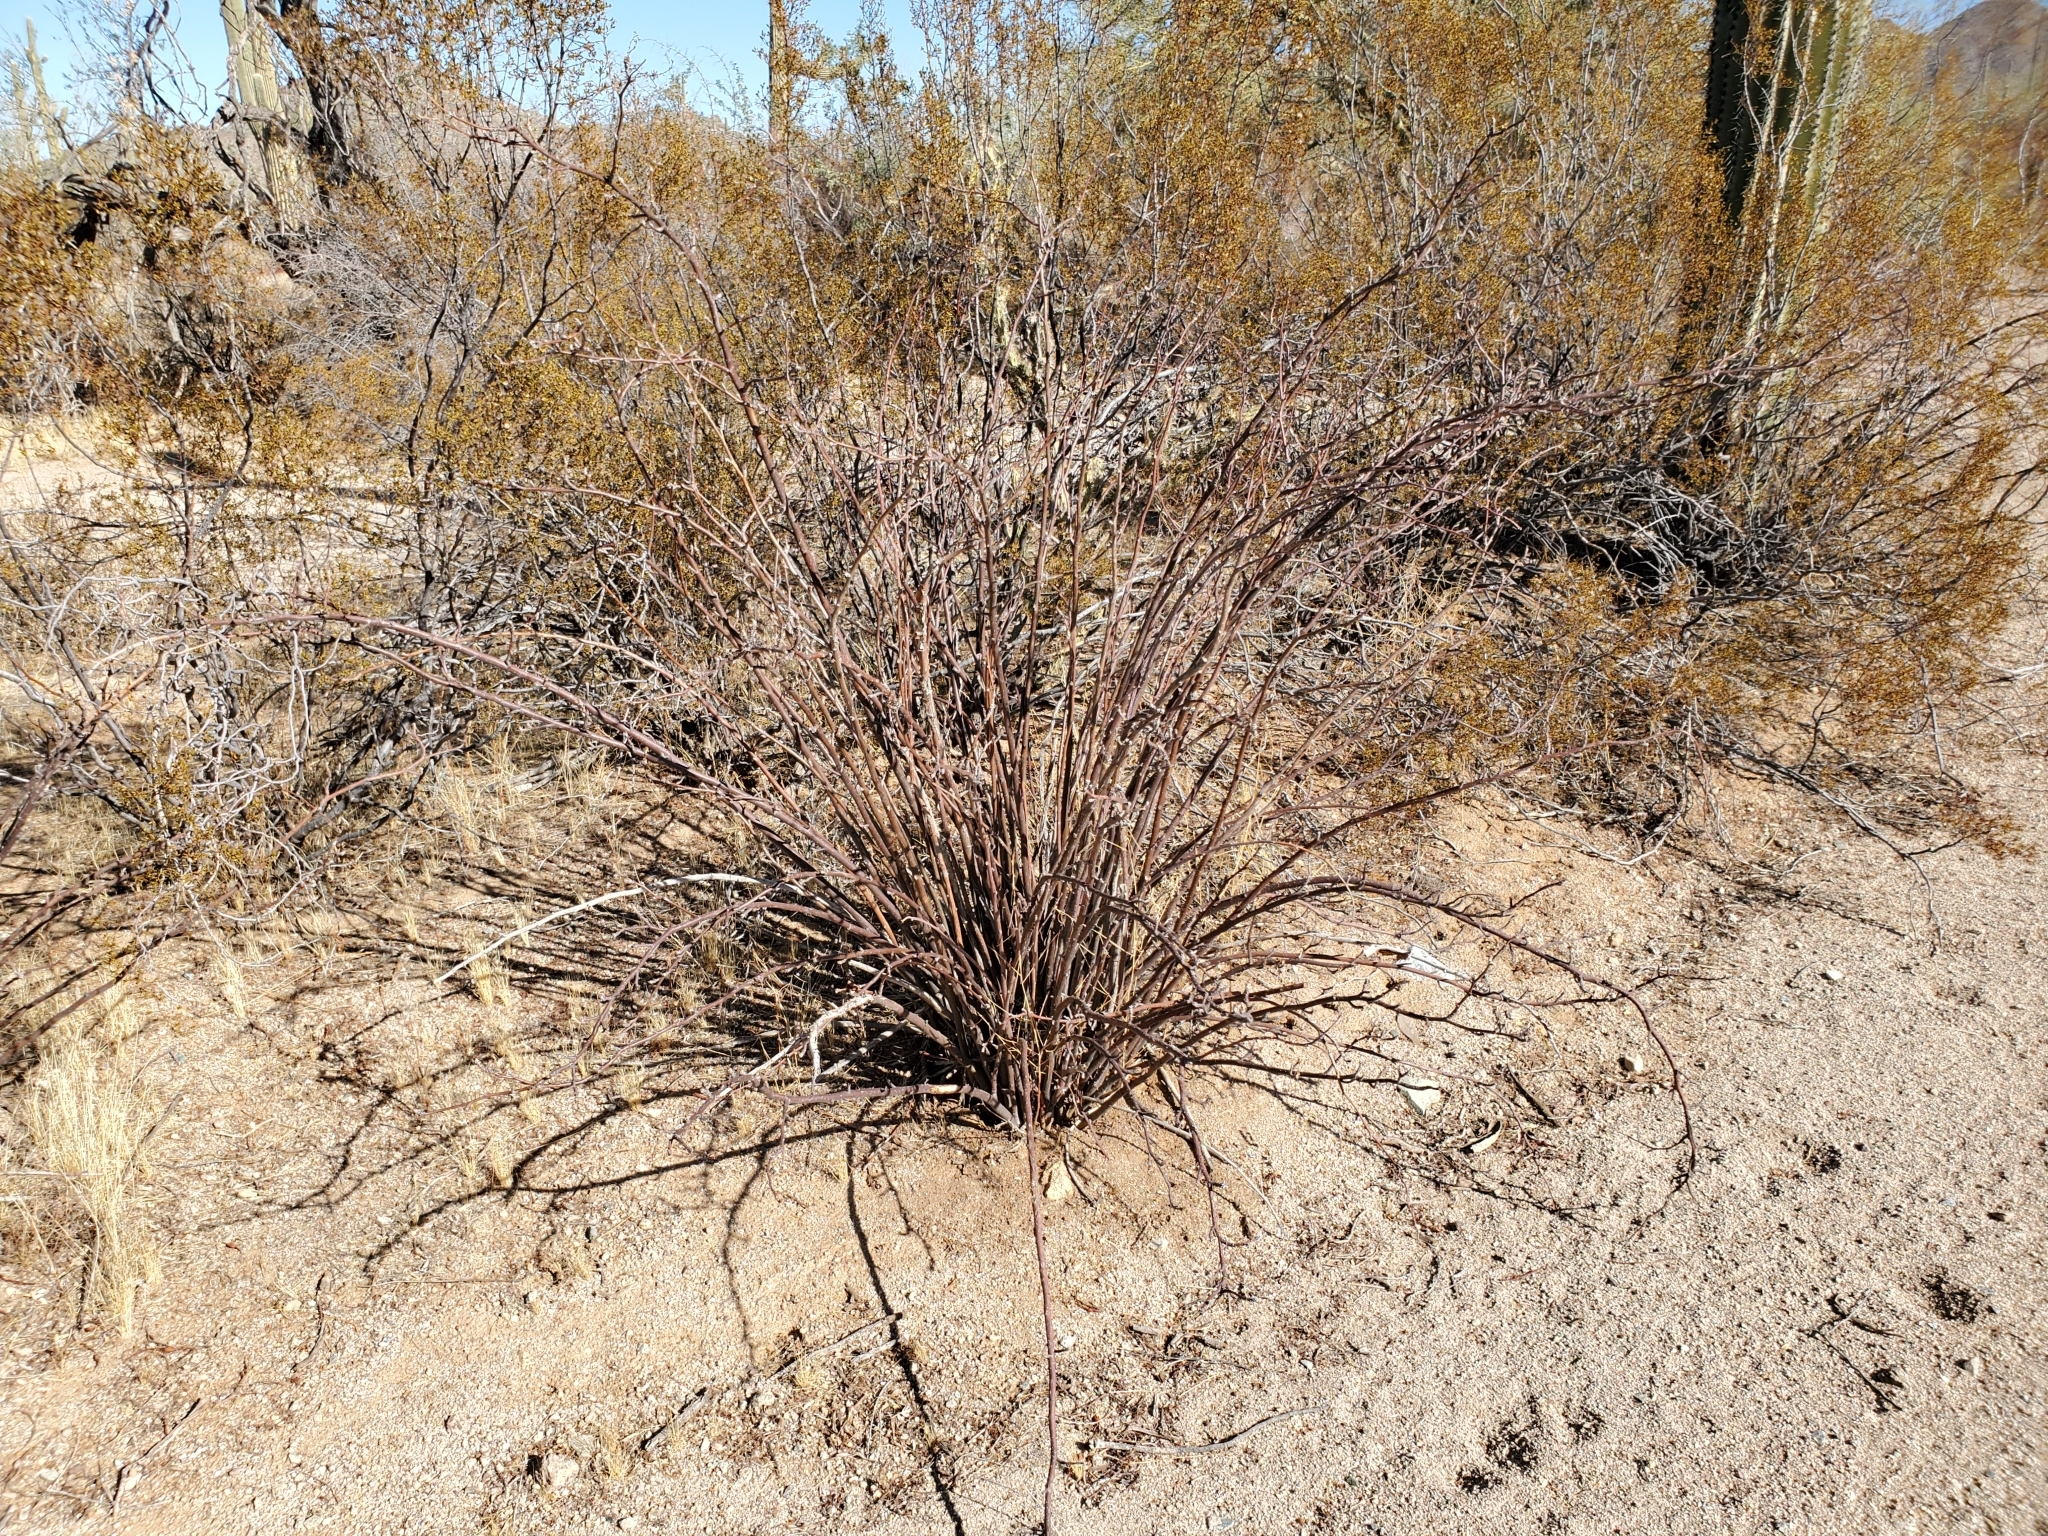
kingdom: Plantae
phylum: Tracheophyta
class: Magnoliopsida
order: Malpighiales
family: Euphorbiaceae
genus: Jatropha
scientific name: Jatropha cardiophylla
